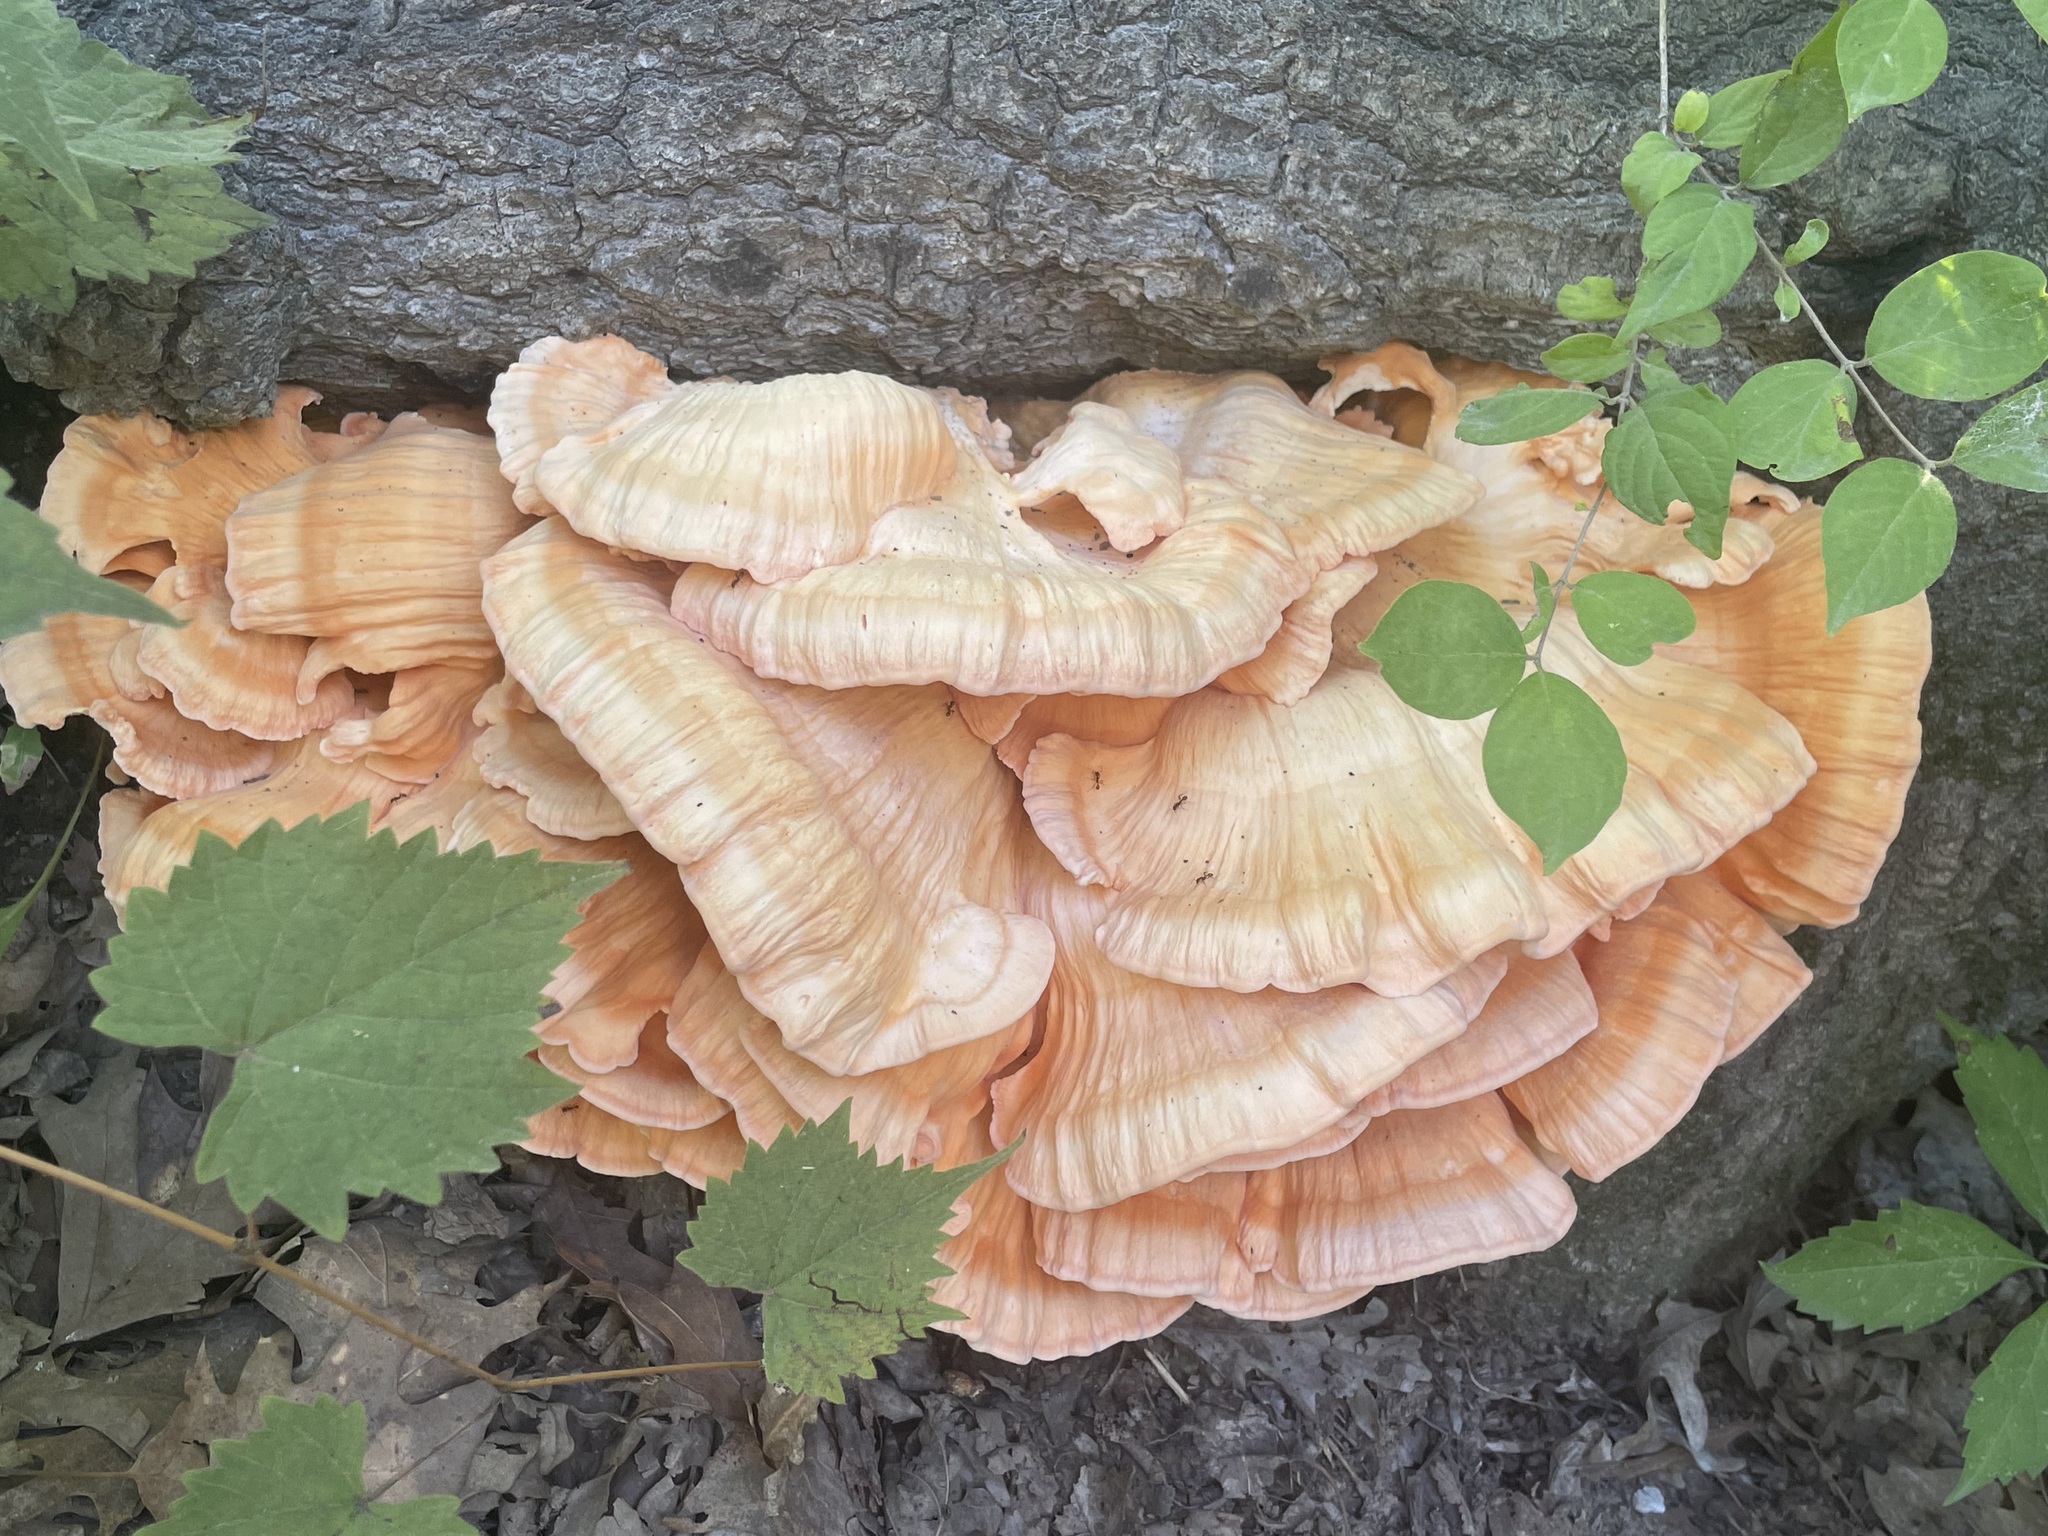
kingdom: Fungi
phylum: Basidiomycota
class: Agaricomycetes
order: Polyporales
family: Laetiporaceae
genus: Laetiporus
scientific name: Laetiporus sulphureus
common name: Chicken of the woods
